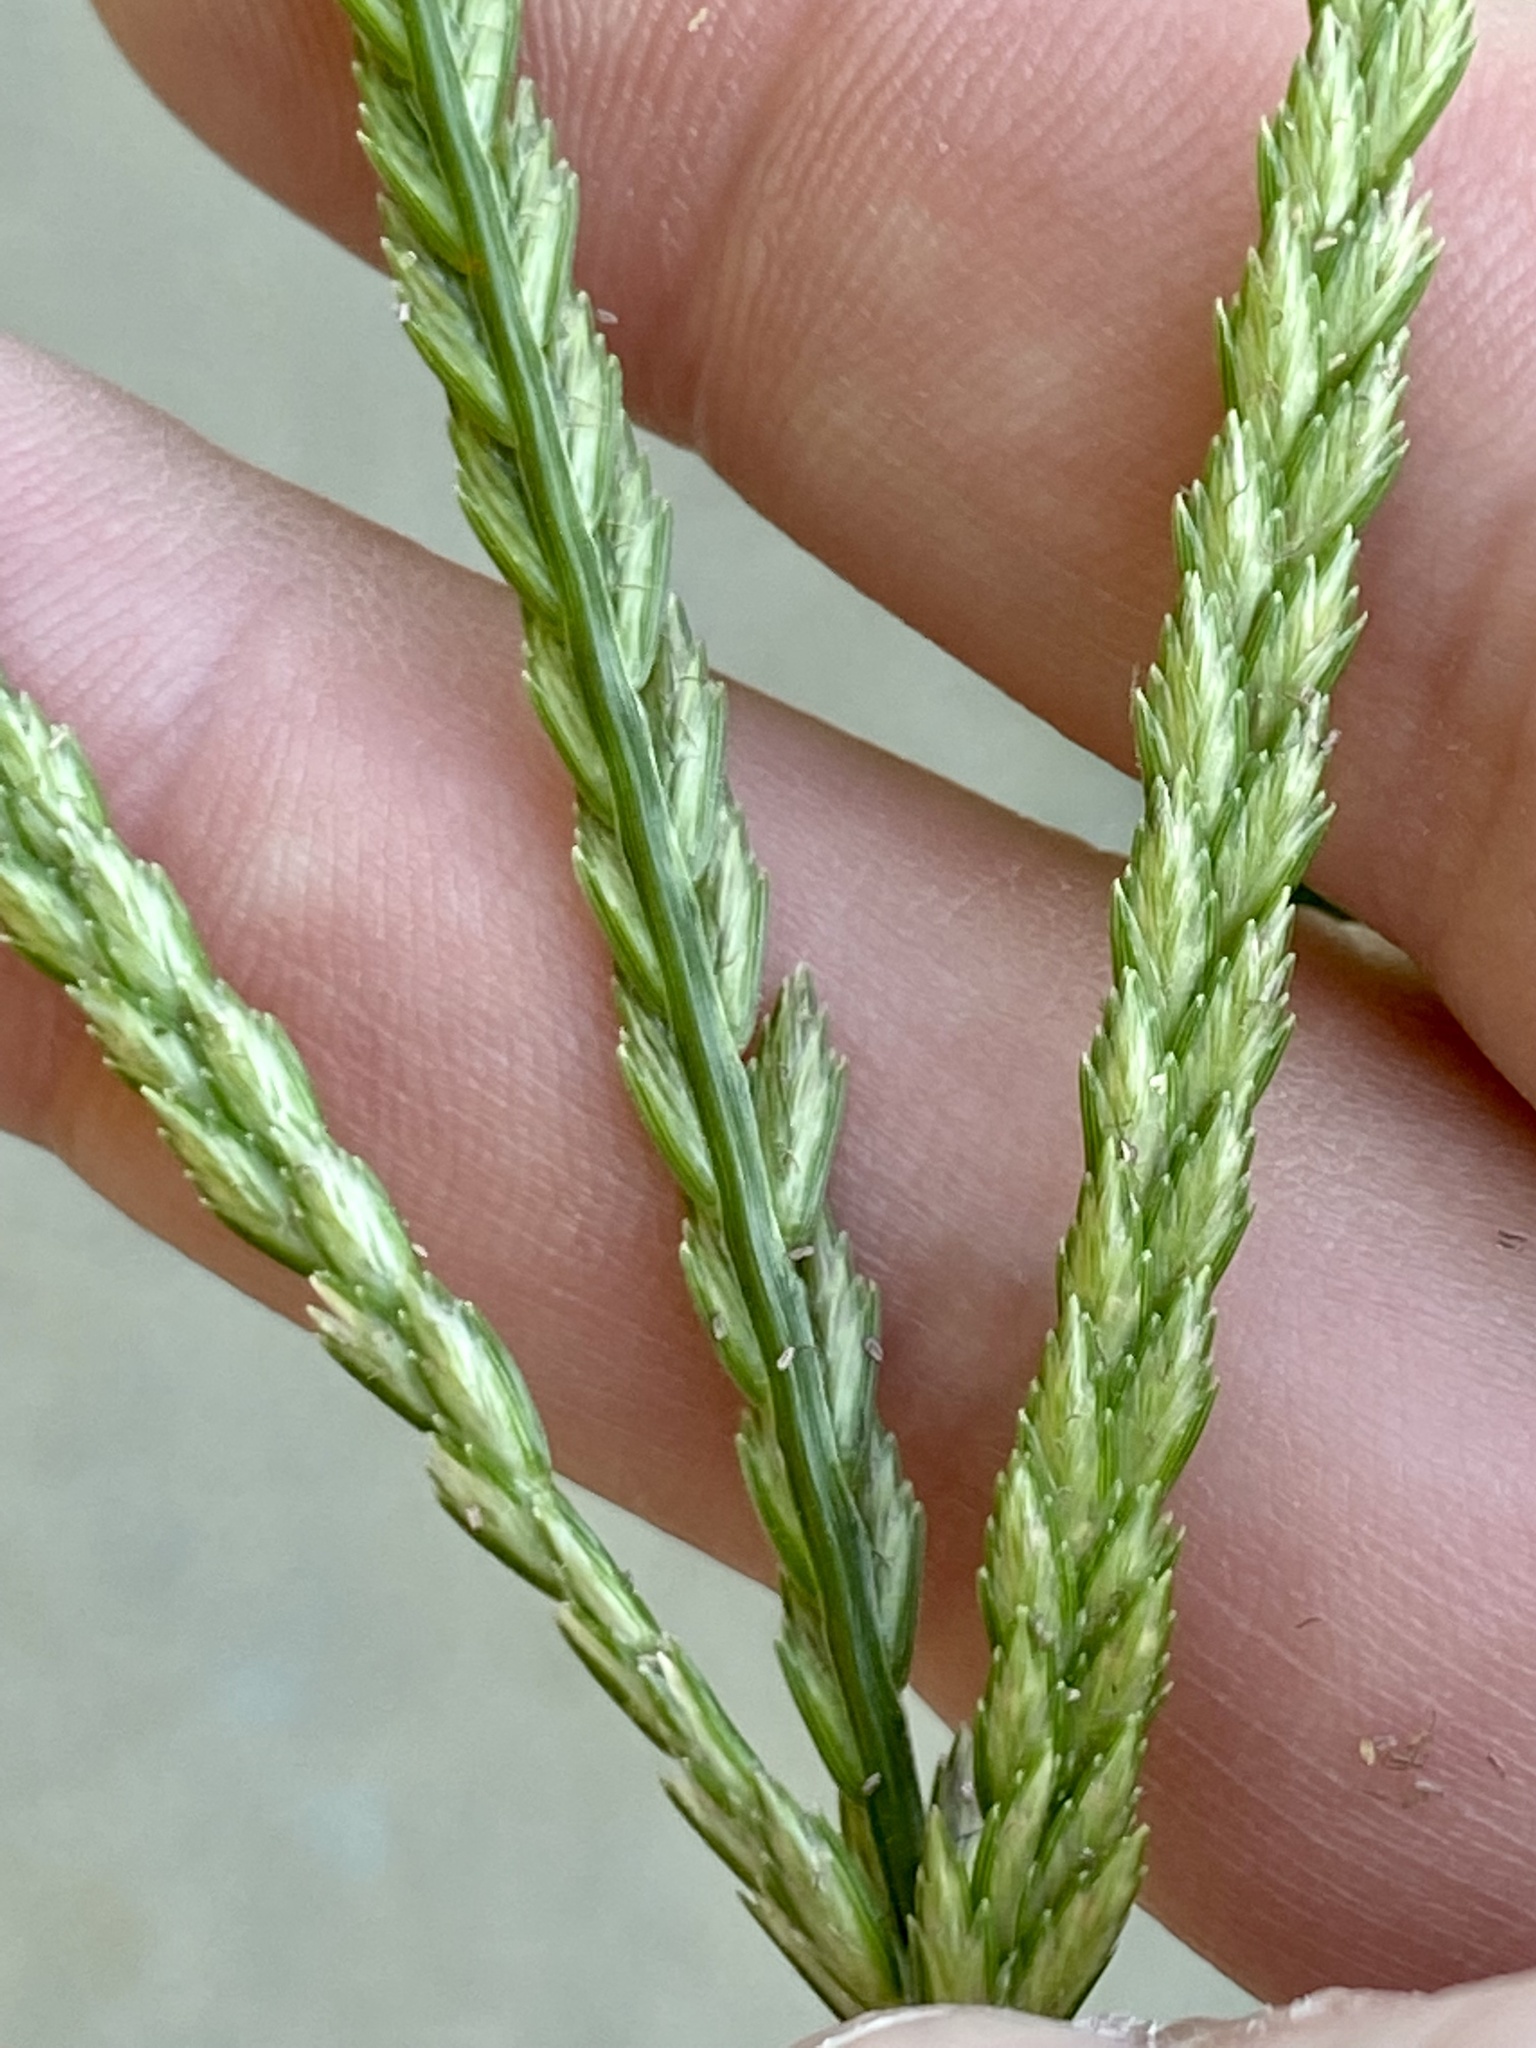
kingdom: Plantae
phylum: Tracheophyta
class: Liliopsida
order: Poales
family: Poaceae
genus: Eleusine
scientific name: Eleusine indica
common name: Yard-grass
